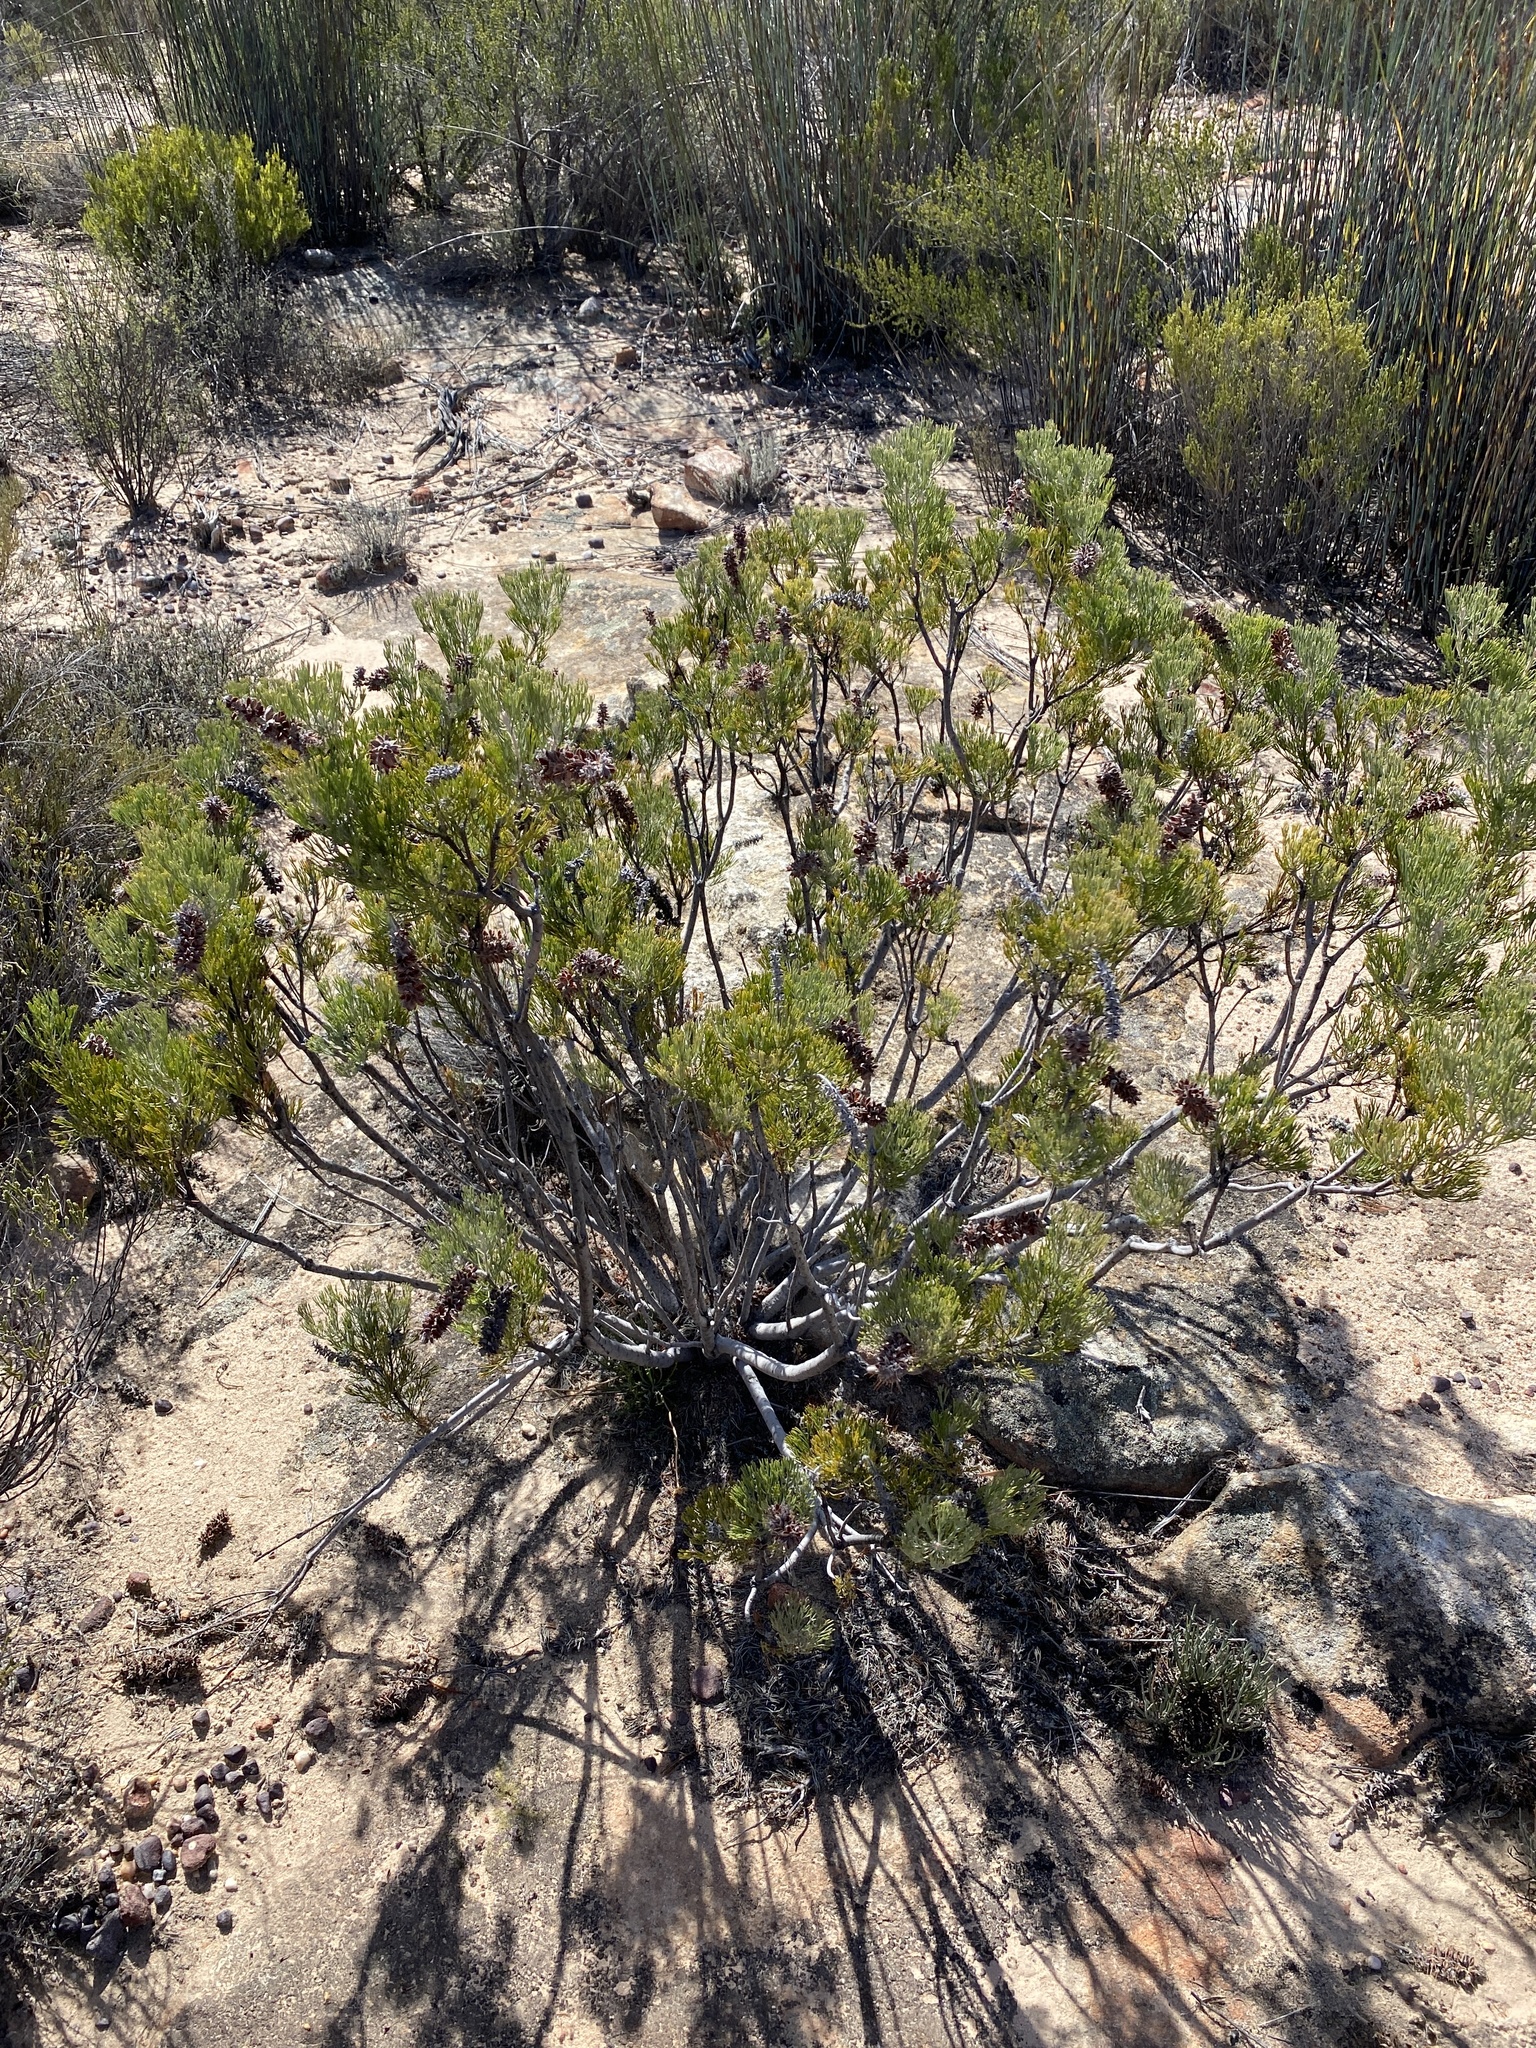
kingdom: Plantae
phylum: Tracheophyta
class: Magnoliopsida
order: Proteales
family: Proteaceae
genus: Paranomus
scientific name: Paranomus bracteolaris
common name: Bokkeveld tree sceptre
